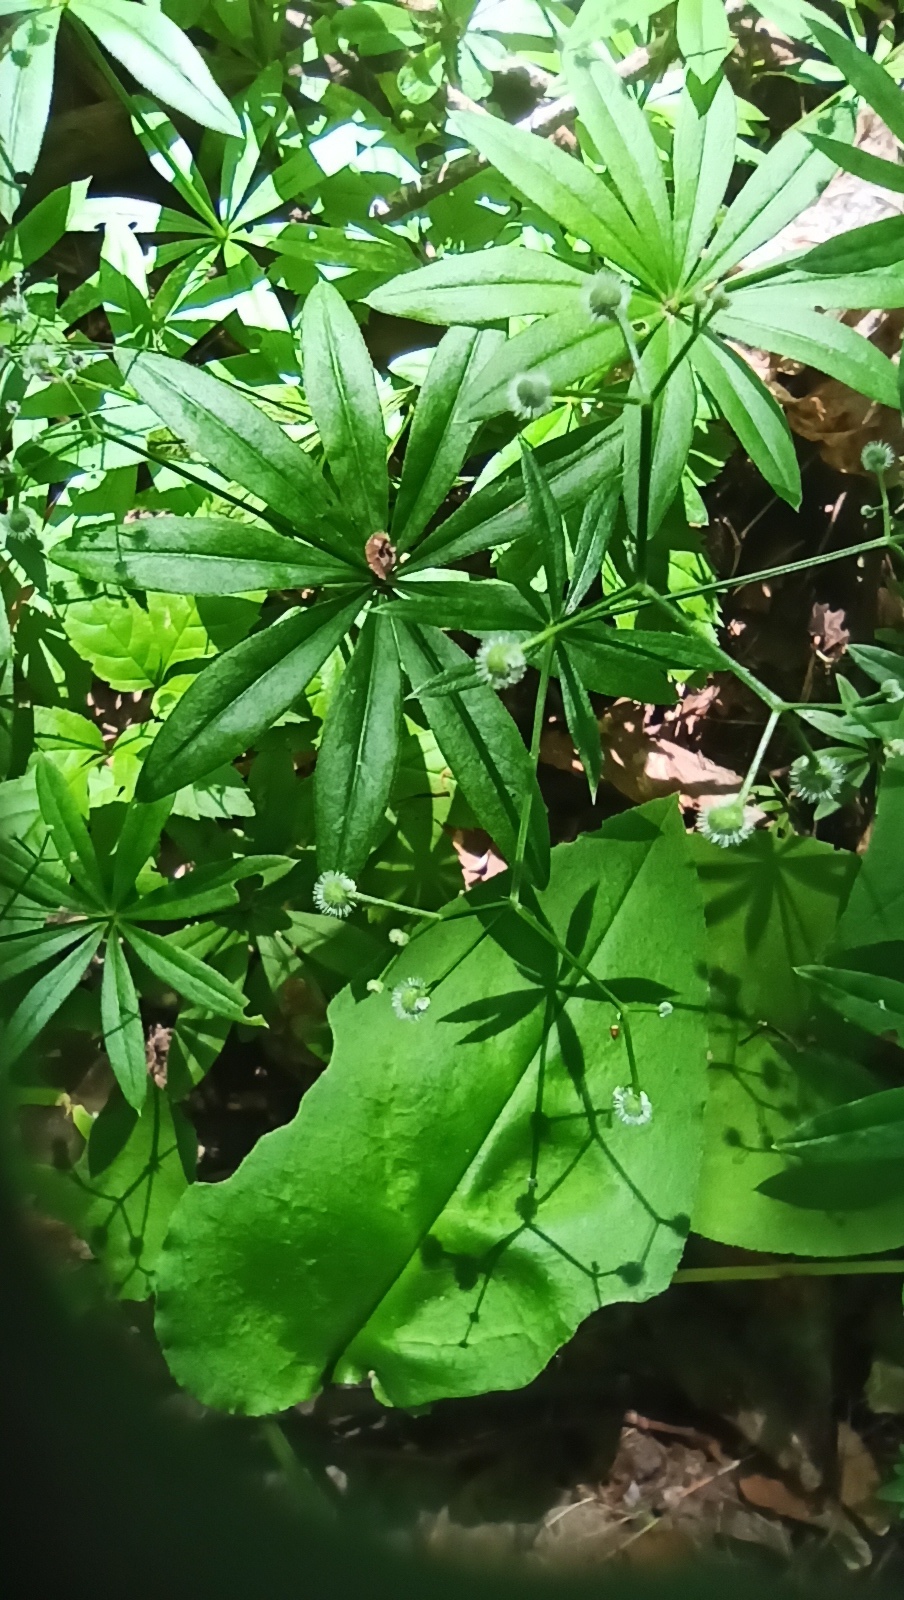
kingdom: Plantae
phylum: Tracheophyta
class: Magnoliopsida
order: Gentianales
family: Rubiaceae
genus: Galium
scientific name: Galium odoratum
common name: Sweet woodruff
